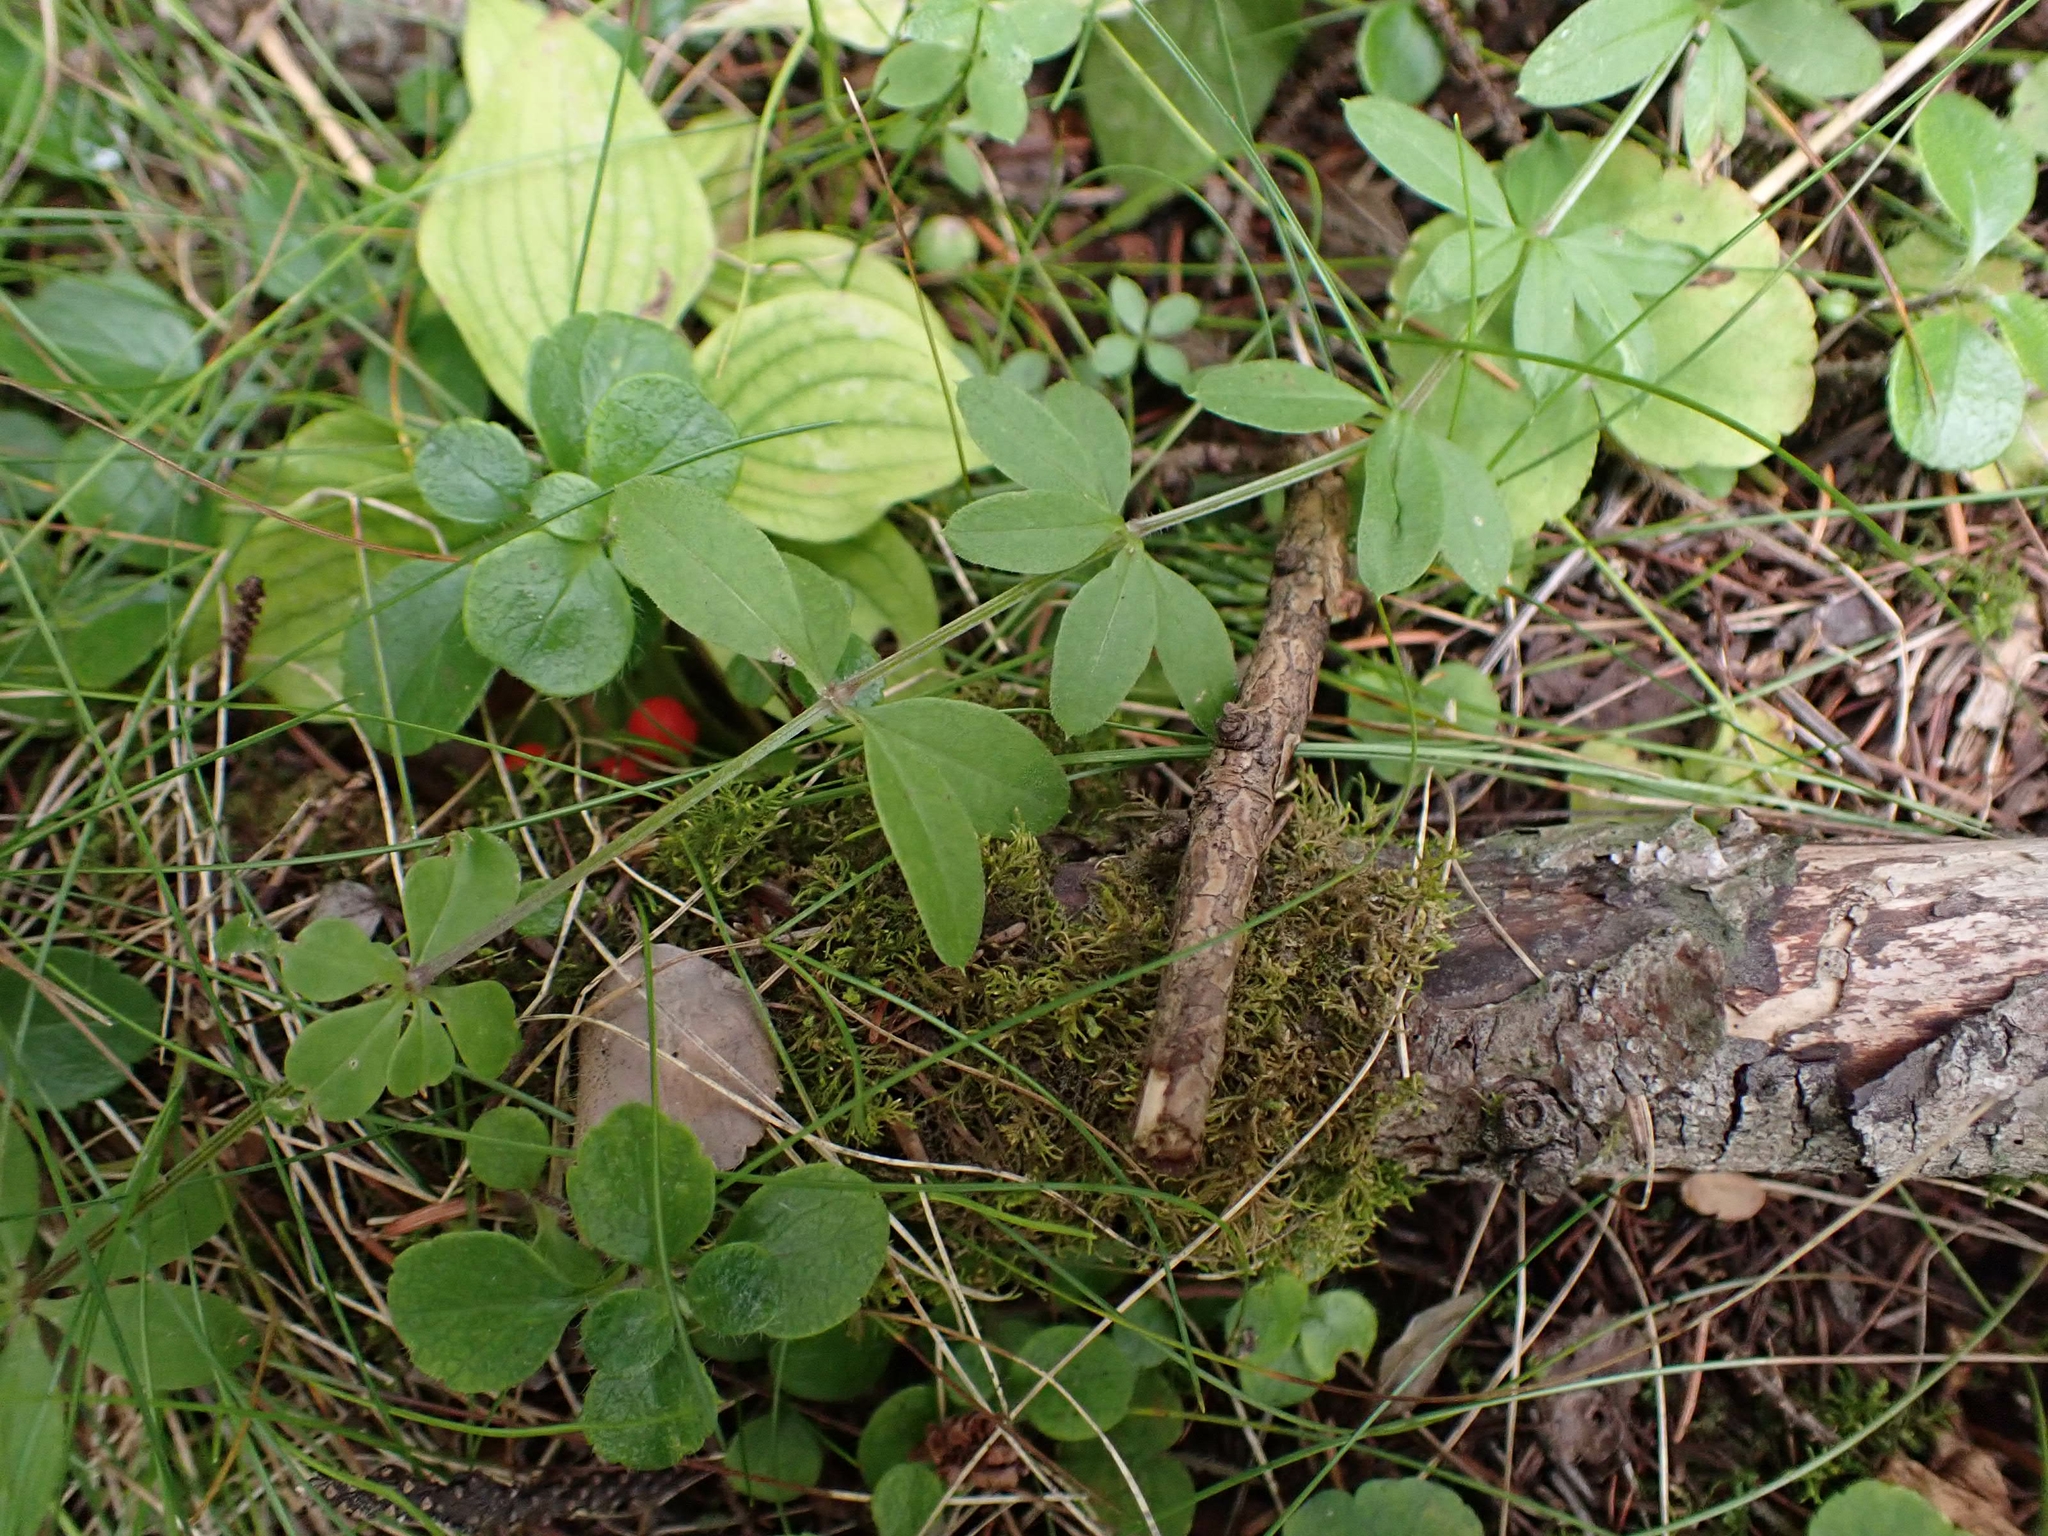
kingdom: Plantae
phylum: Tracheophyta
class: Magnoliopsida
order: Gentianales
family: Rubiaceae
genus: Galium
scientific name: Galium triflorum
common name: Fragrant bedstraw
